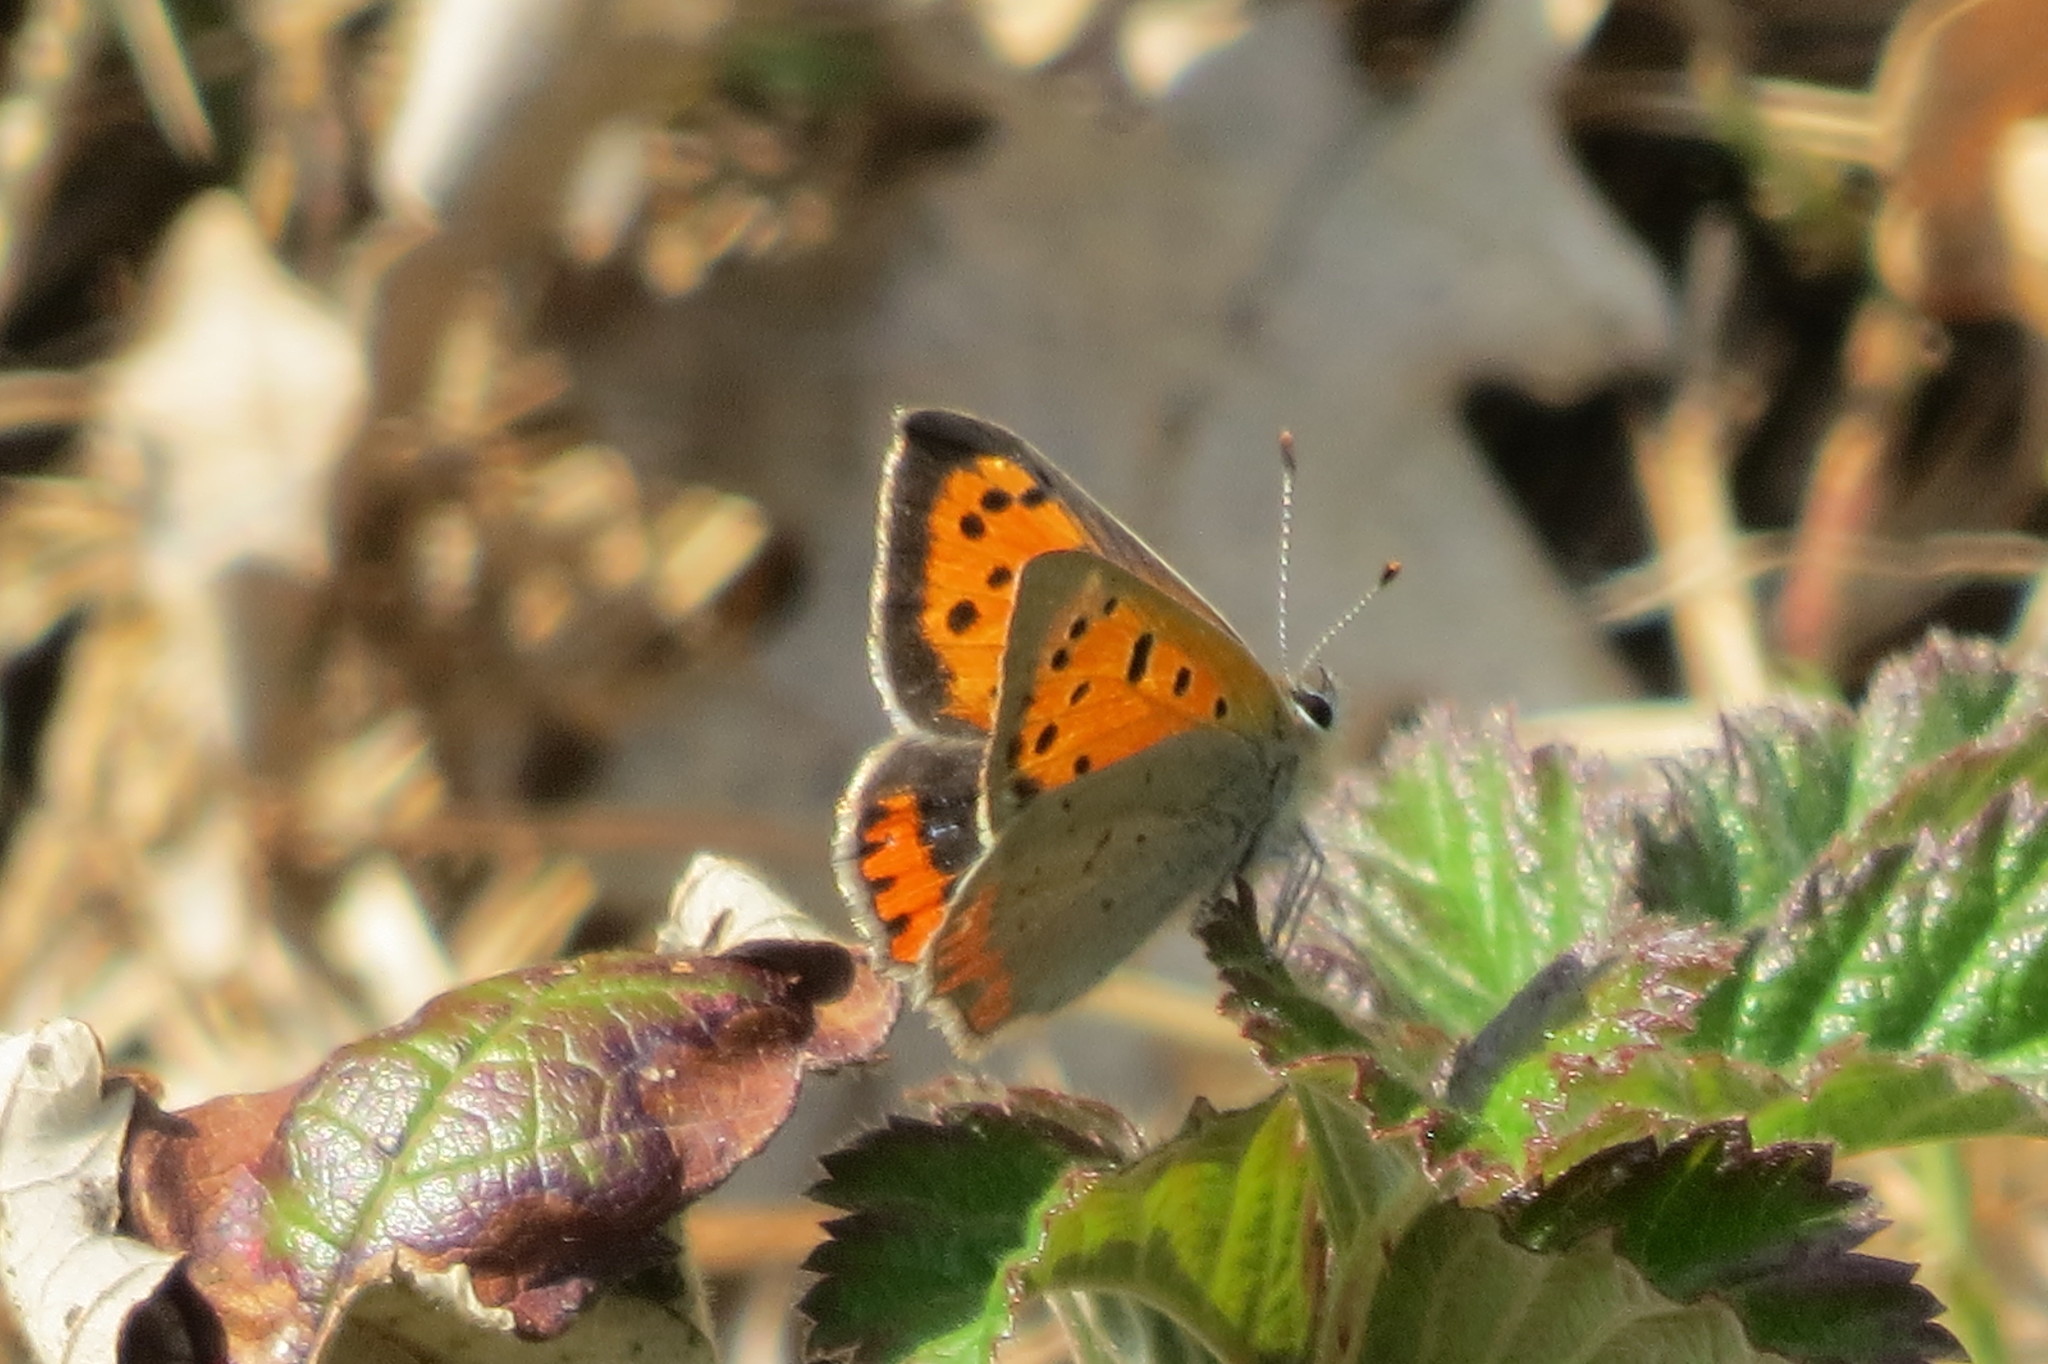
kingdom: Animalia
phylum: Arthropoda
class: Insecta
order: Lepidoptera
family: Lycaenidae
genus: Lycaena
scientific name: Lycaena phlaeas
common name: Small copper
